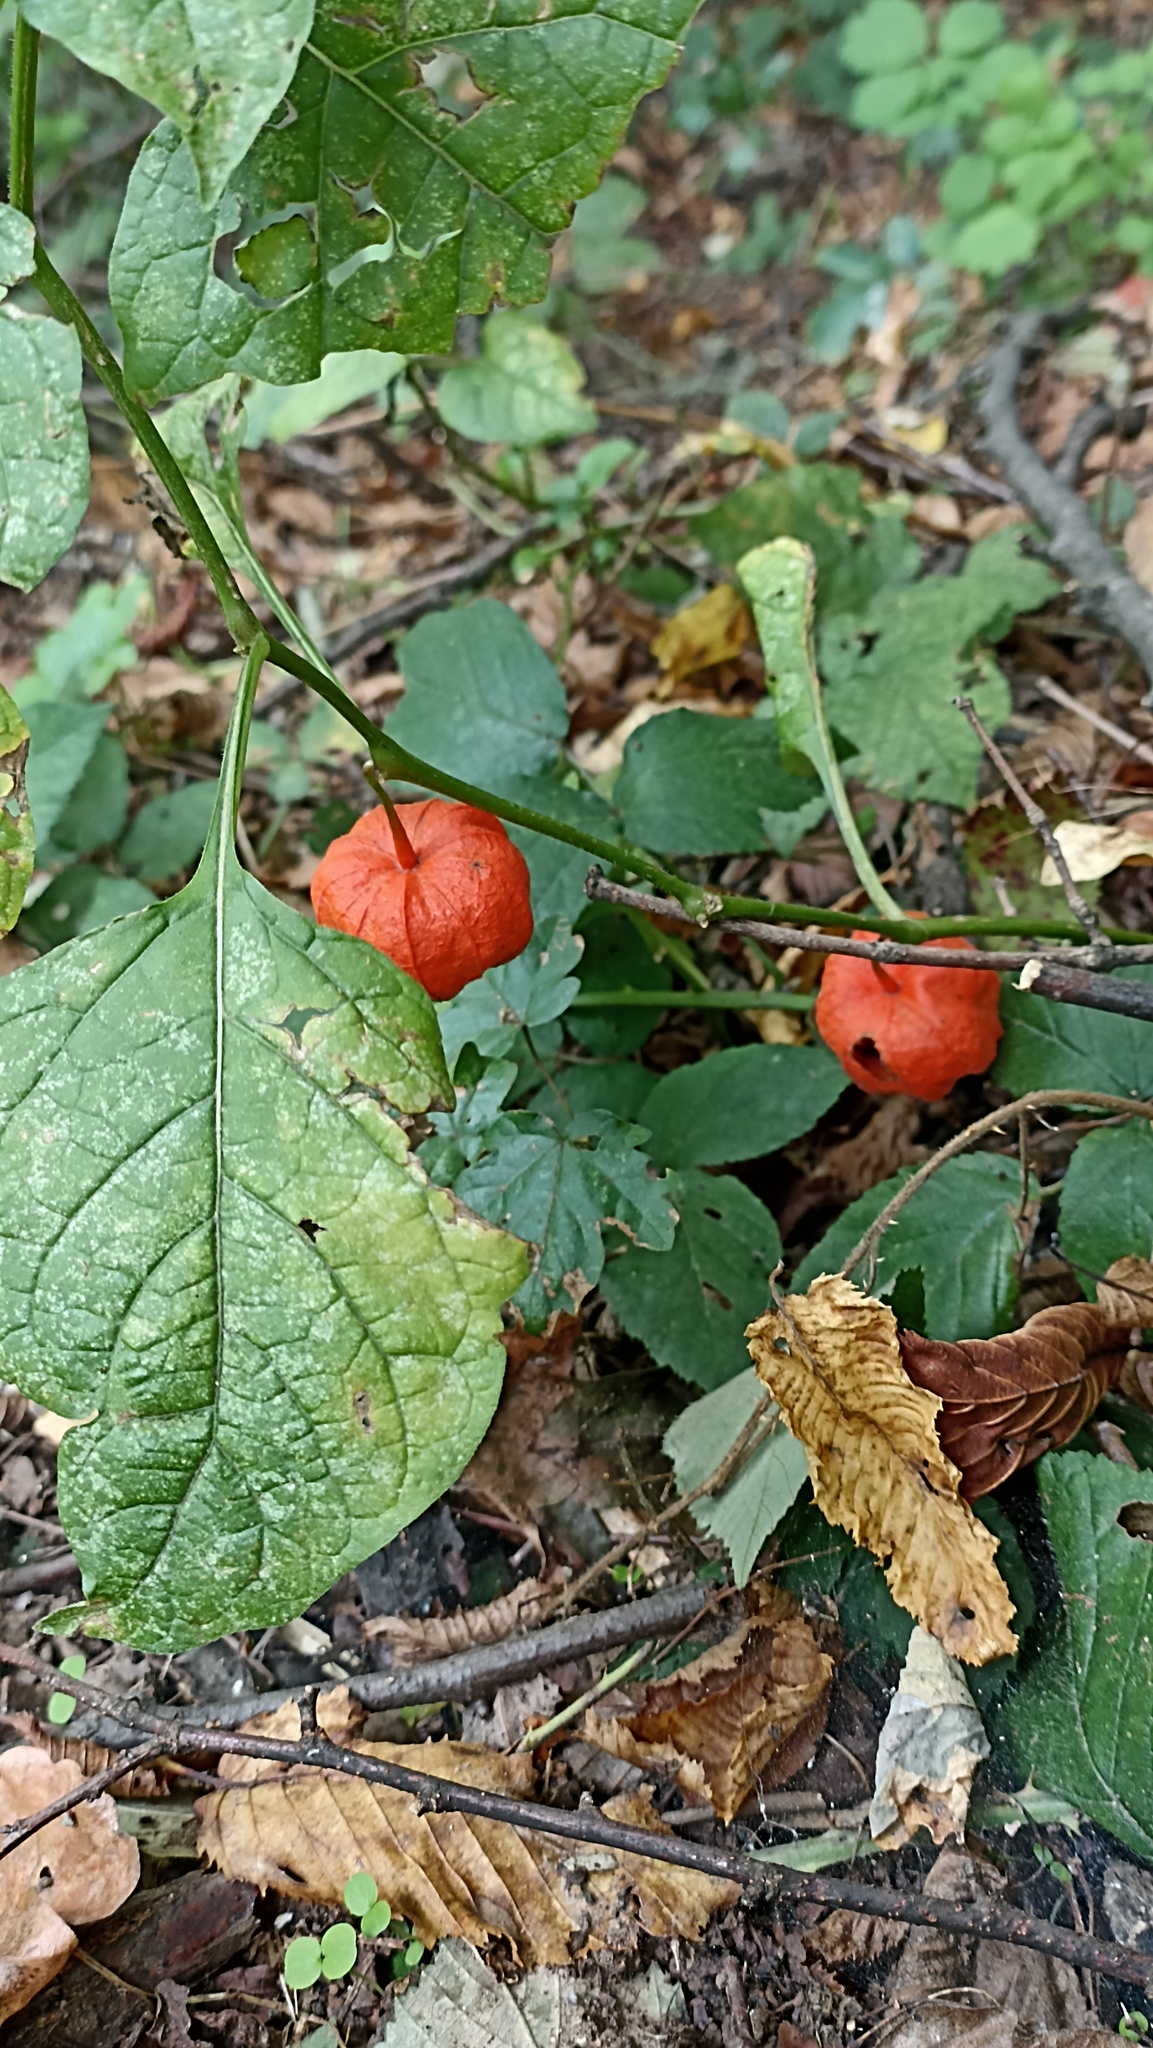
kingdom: Plantae
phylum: Tracheophyta
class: Magnoliopsida
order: Solanales
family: Solanaceae
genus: Alkekengi
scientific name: Alkekengi officinarum
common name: Japanese-lantern
